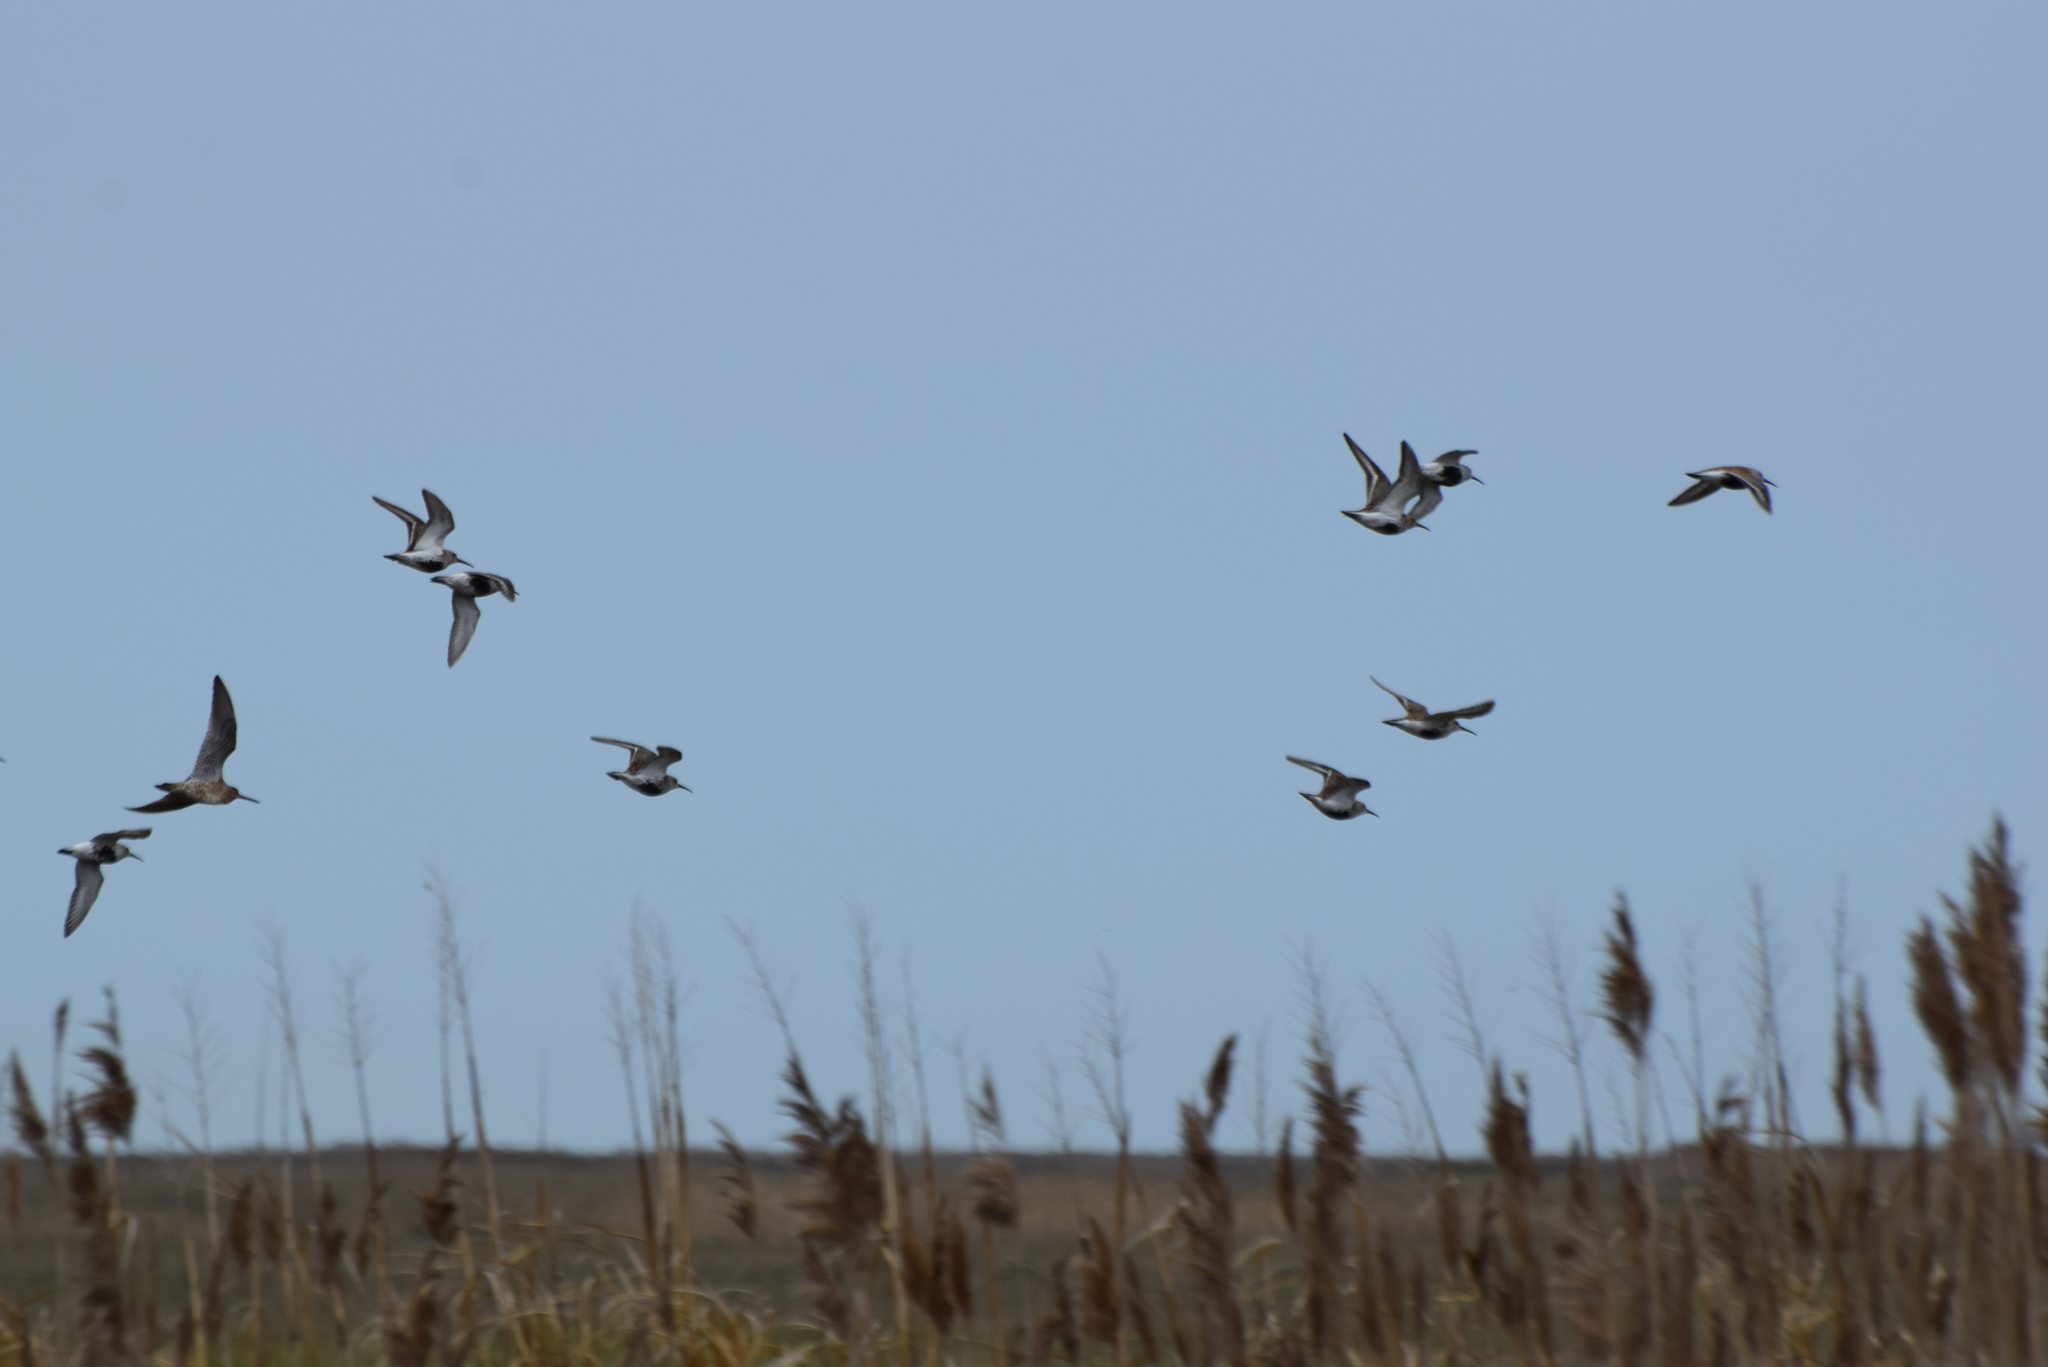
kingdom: Animalia
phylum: Chordata
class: Aves
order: Charadriiformes
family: Scolopacidae
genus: Calidris
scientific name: Calidris alpina
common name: Dunlin
